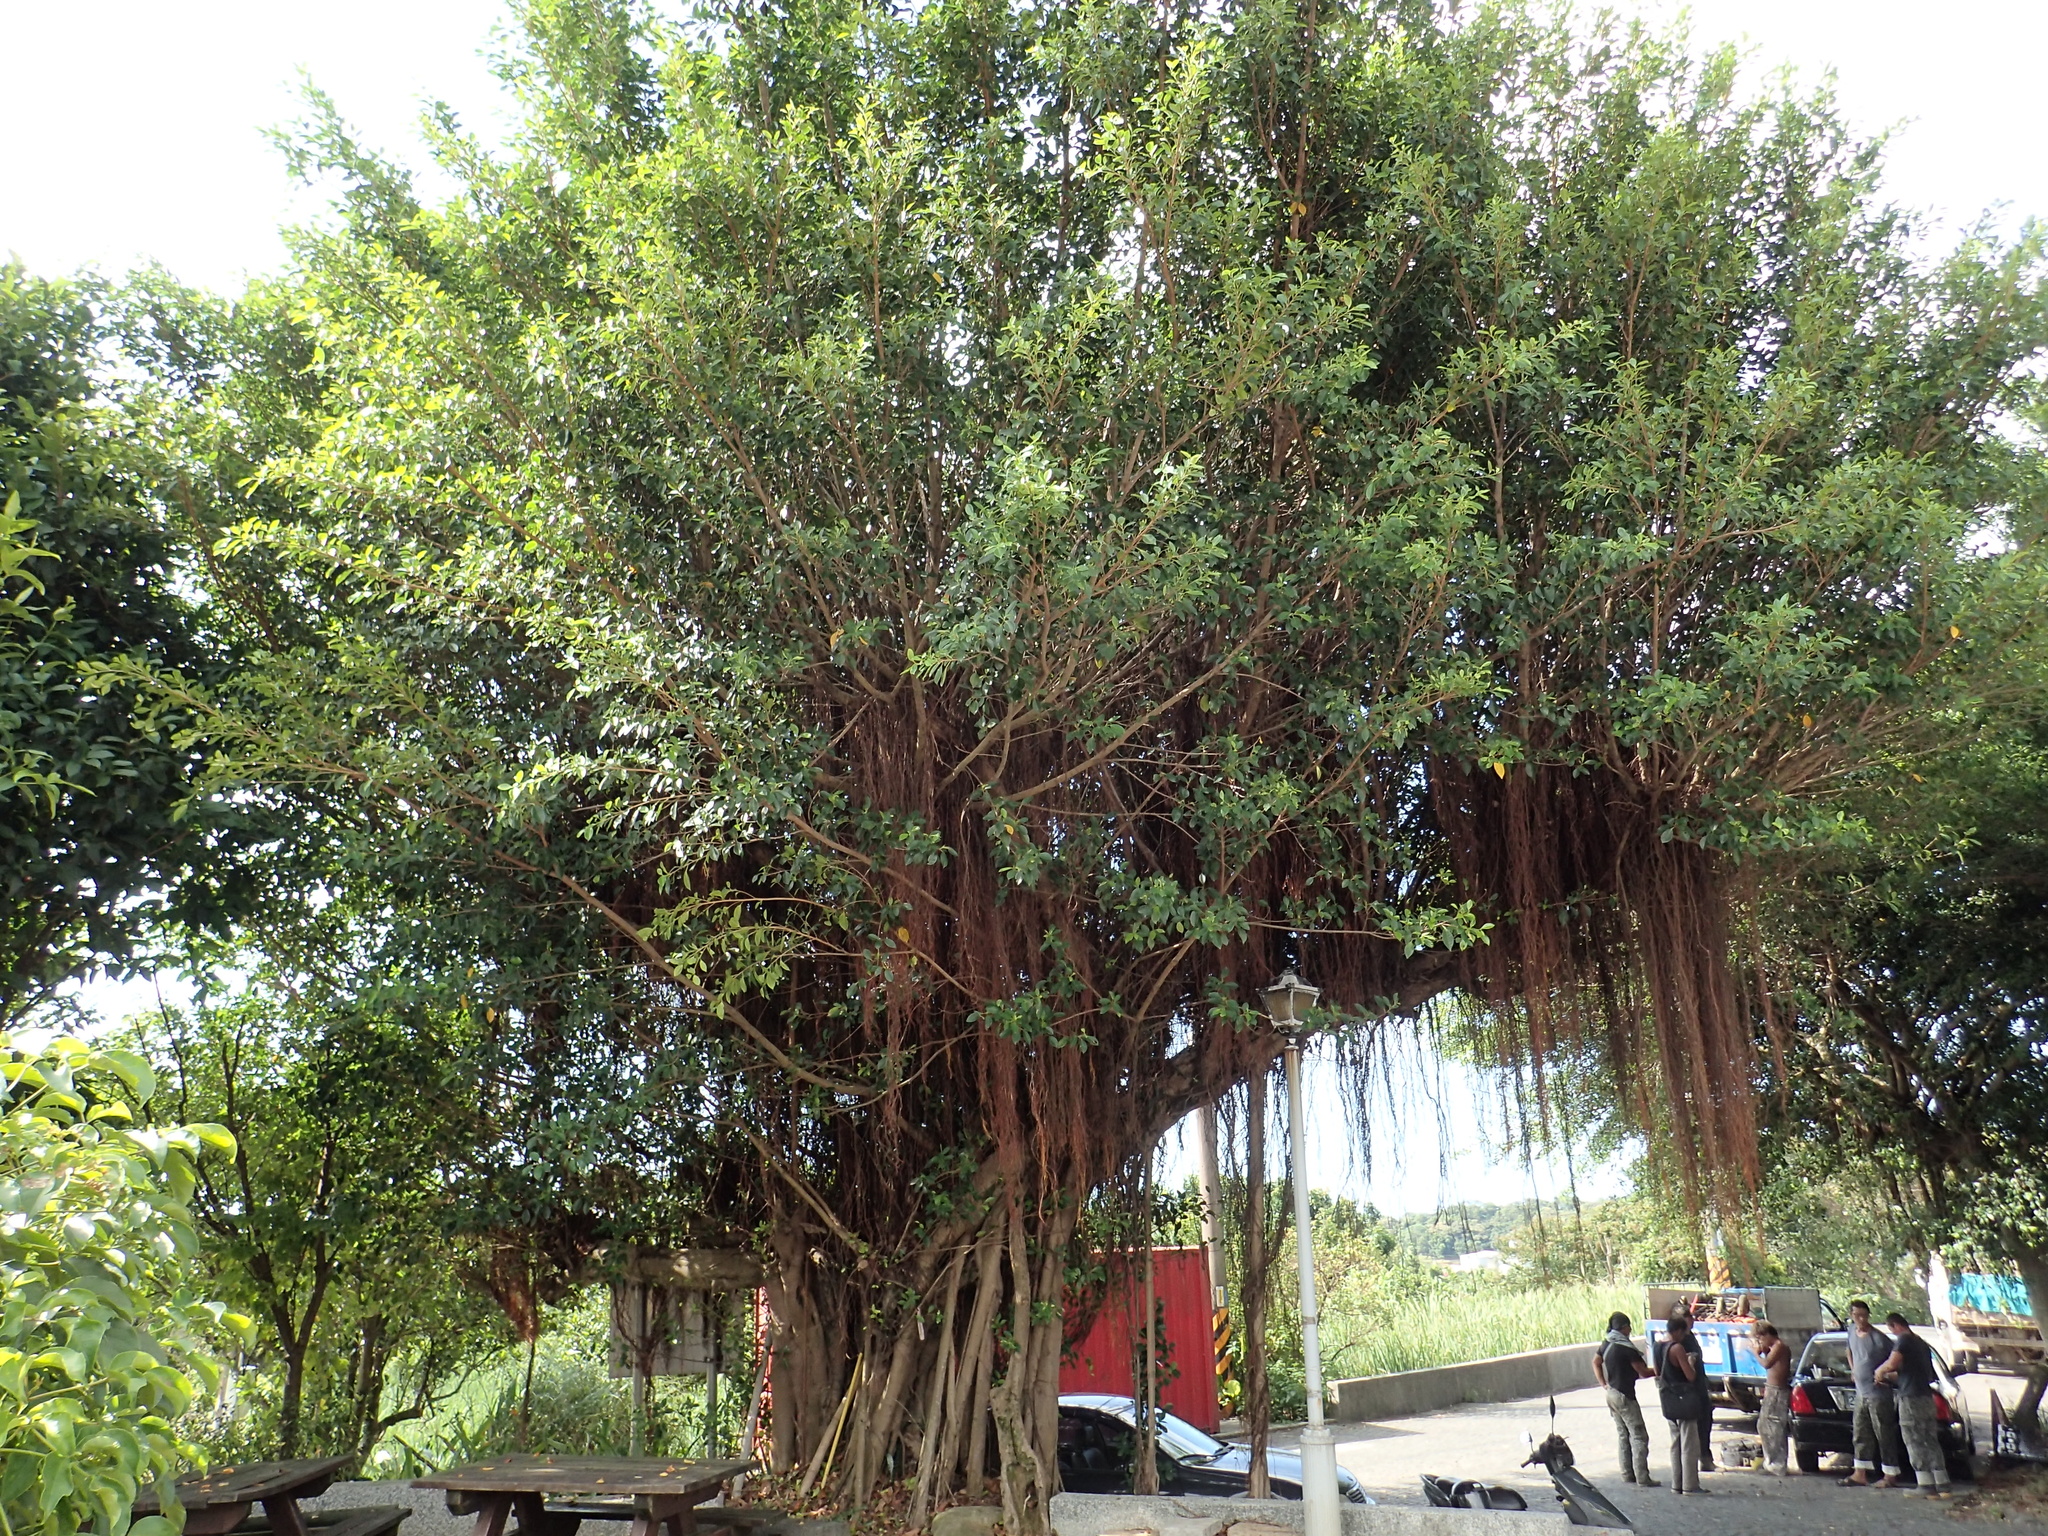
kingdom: Plantae
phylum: Tracheophyta
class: Magnoliopsida
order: Rosales
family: Moraceae
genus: Ficus
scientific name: Ficus microcarpa
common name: Chinese banyan
